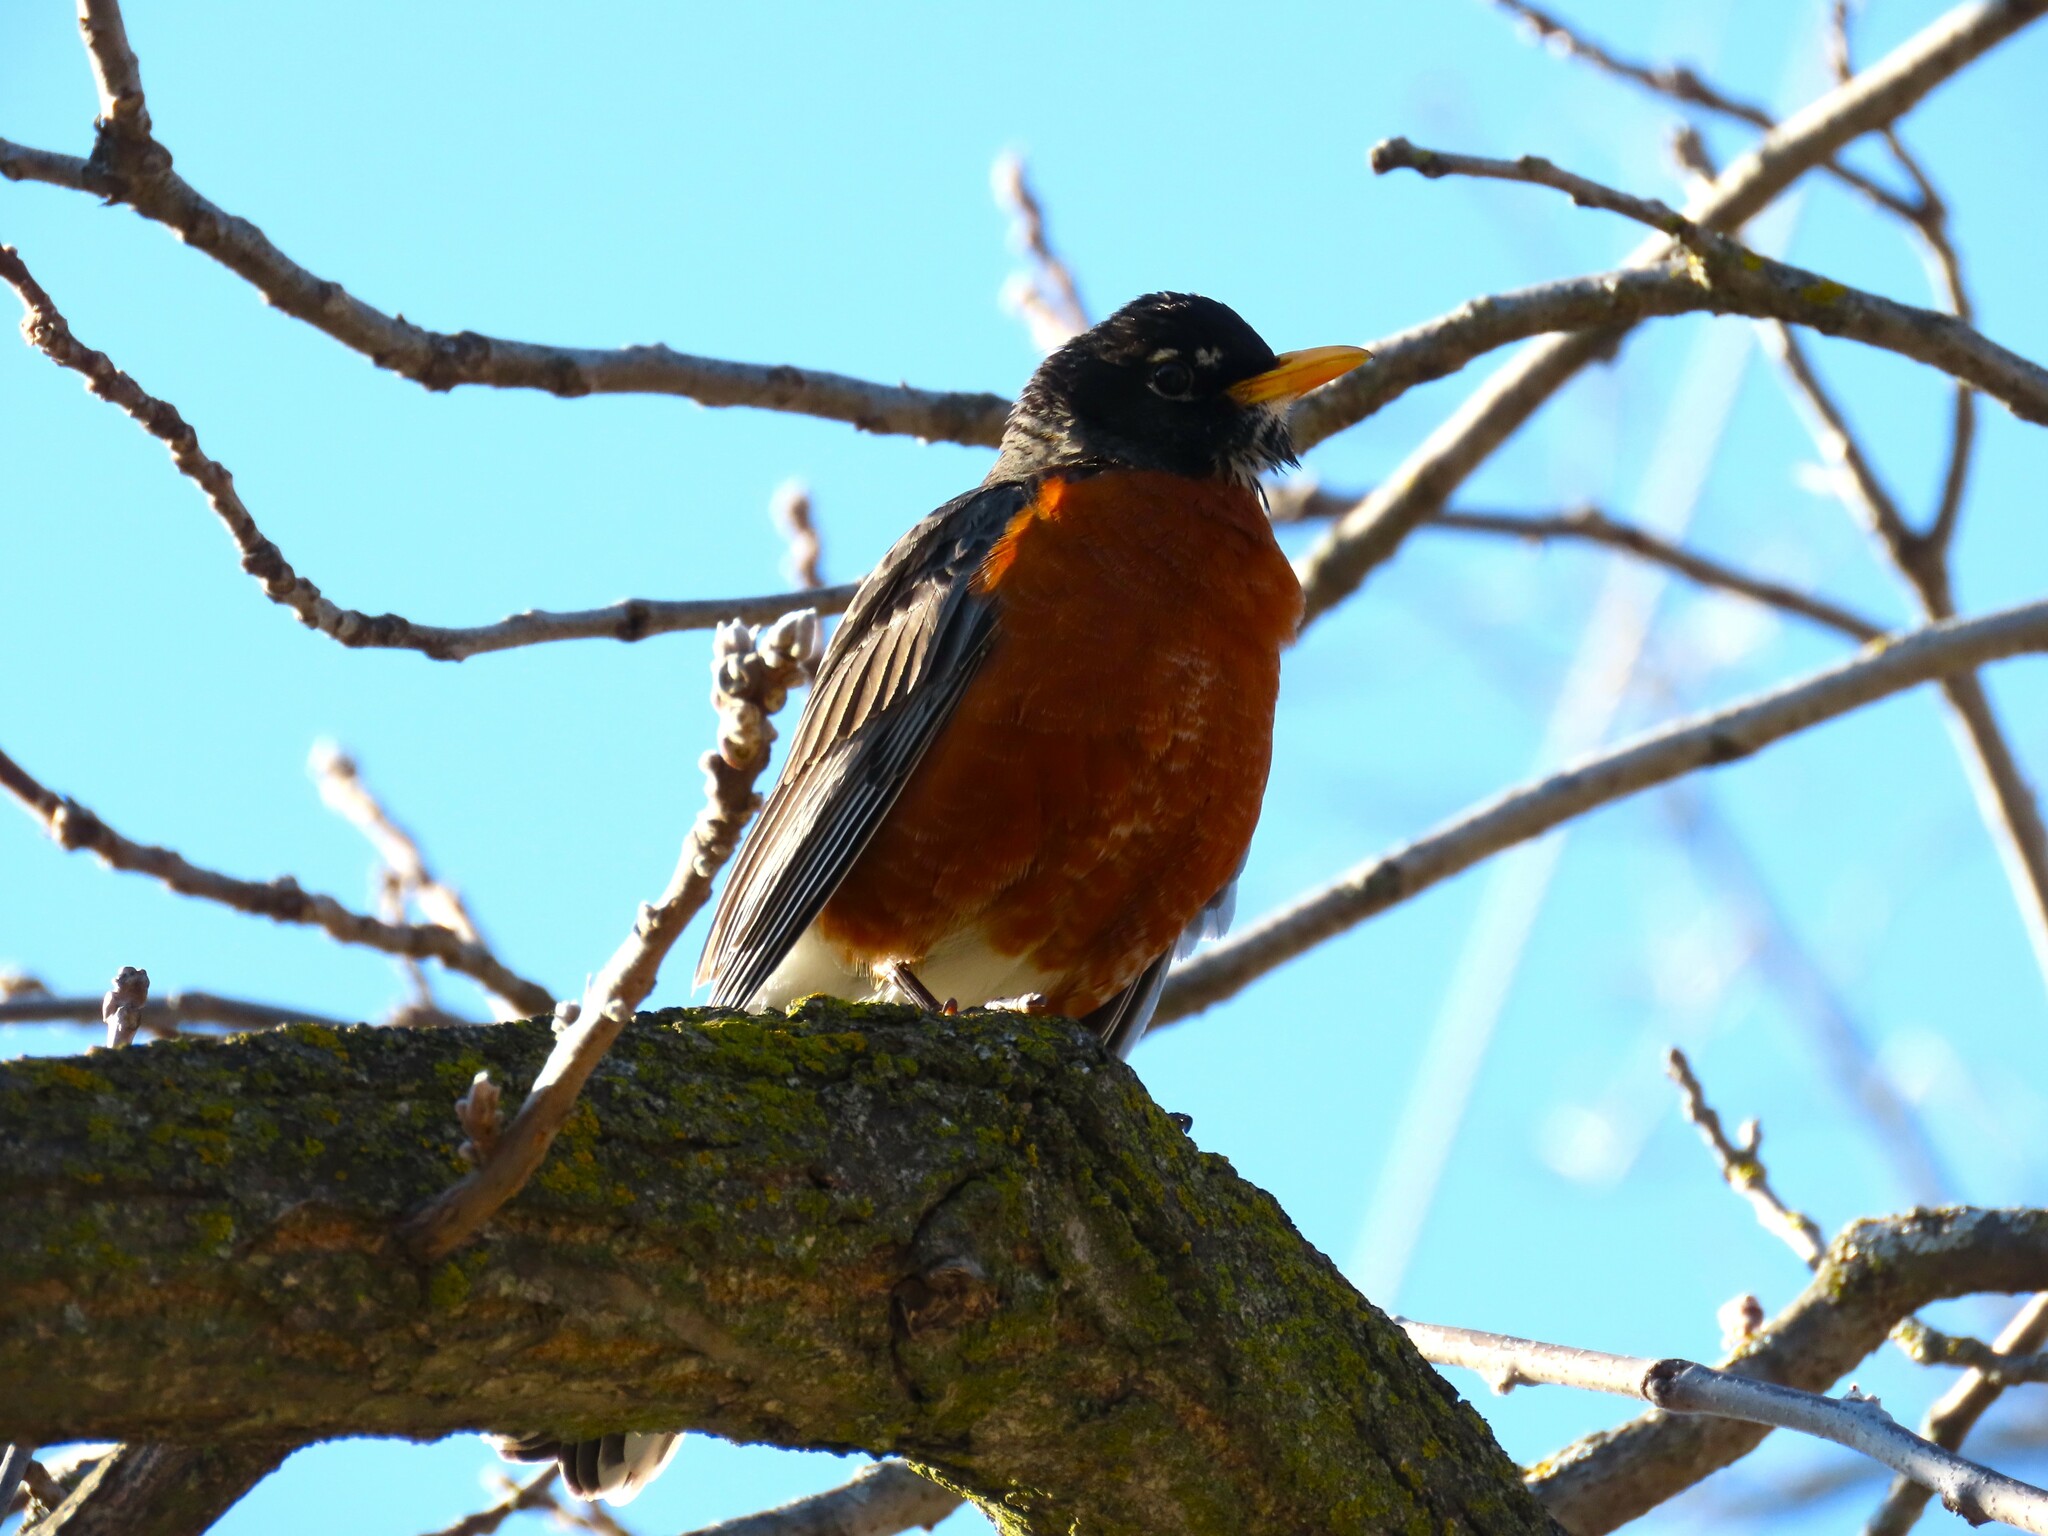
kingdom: Animalia
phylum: Chordata
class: Aves
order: Passeriformes
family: Turdidae
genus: Turdus
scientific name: Turdus migratorius
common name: American robin
